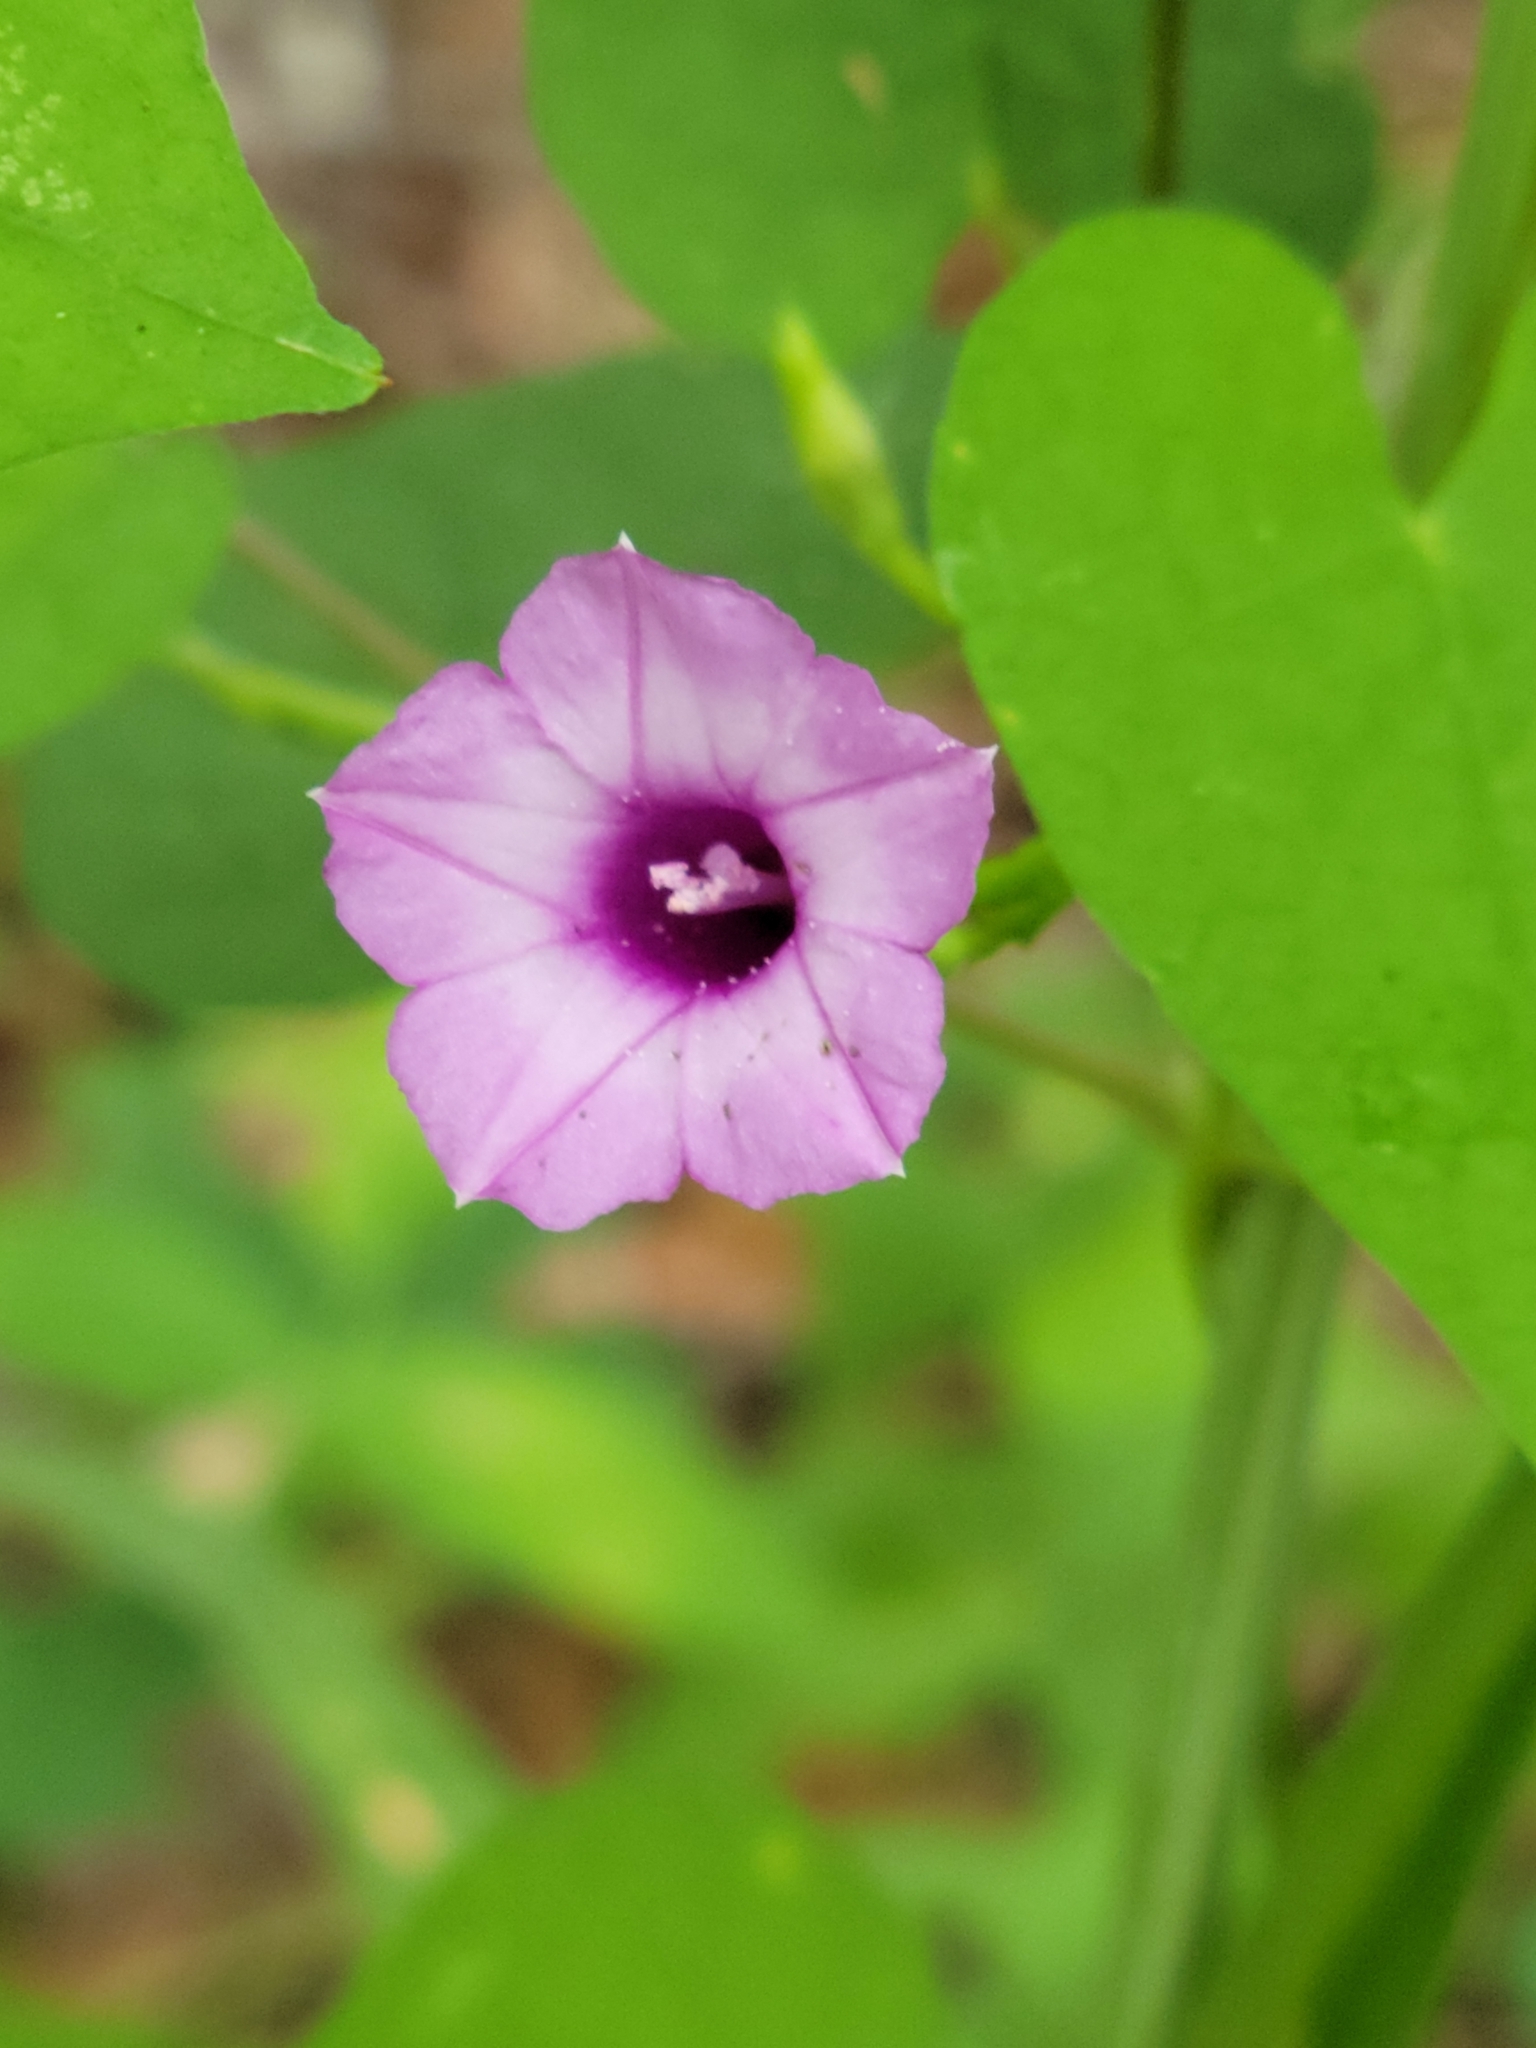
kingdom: Plantae
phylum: Tracheophyta
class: Magnoliopsida
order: Solanales
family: Convolvulaceae
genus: Ipomoea
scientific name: Ipomoea triloba
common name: Little-bell
